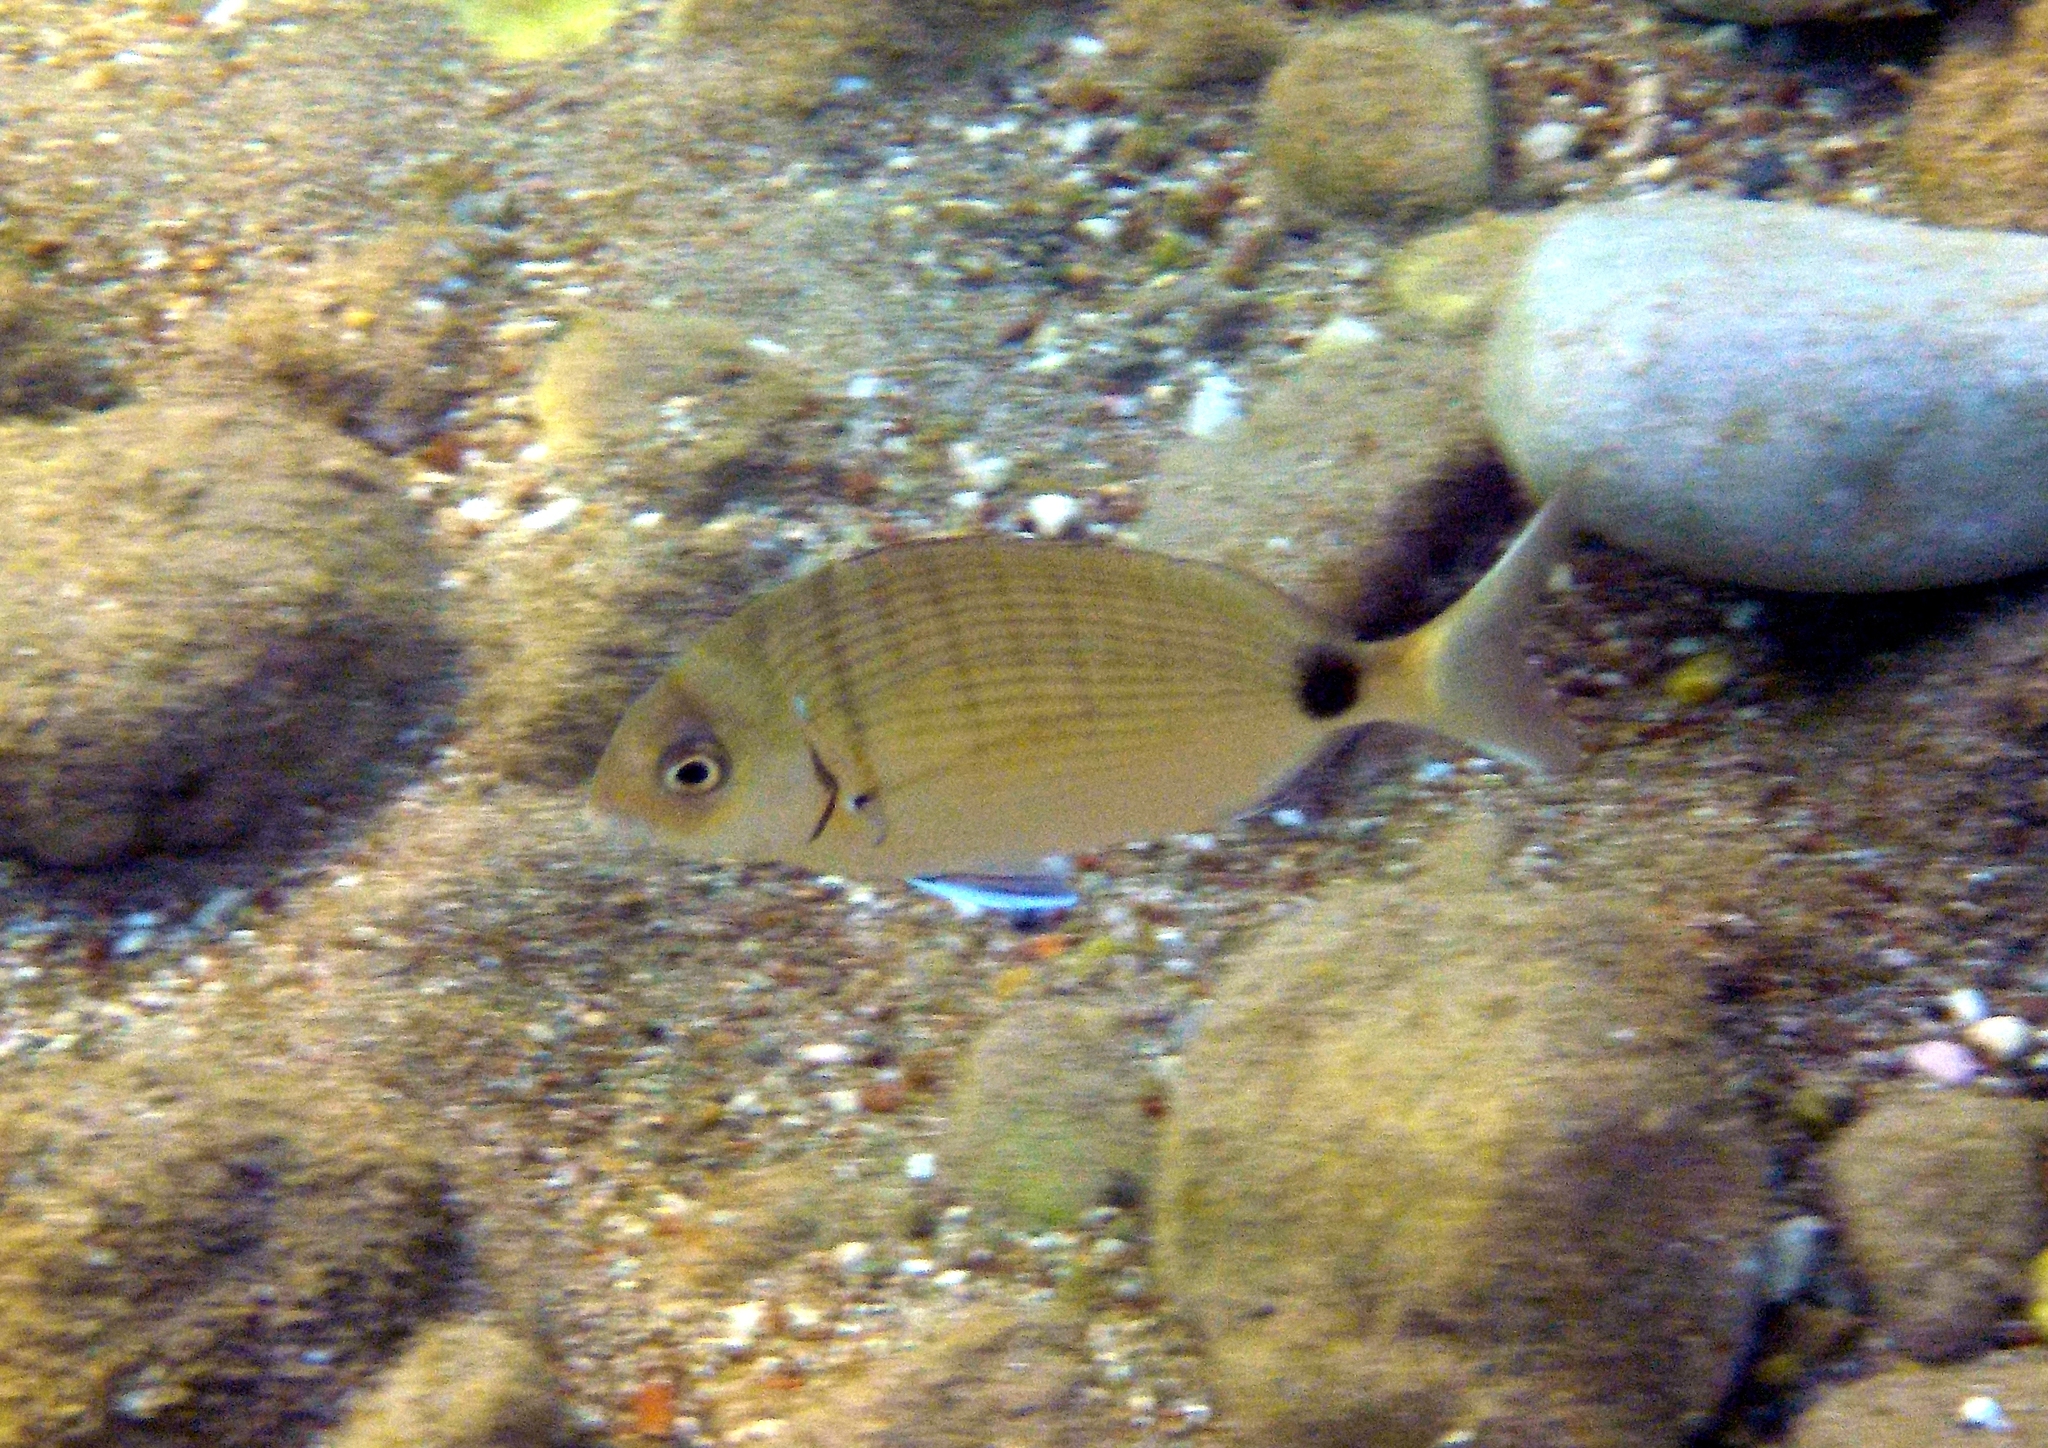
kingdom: Animalia
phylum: Chordata
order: Perciformes
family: Sparidae
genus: Diplodus
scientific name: Diplodus sargus
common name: White seabream
